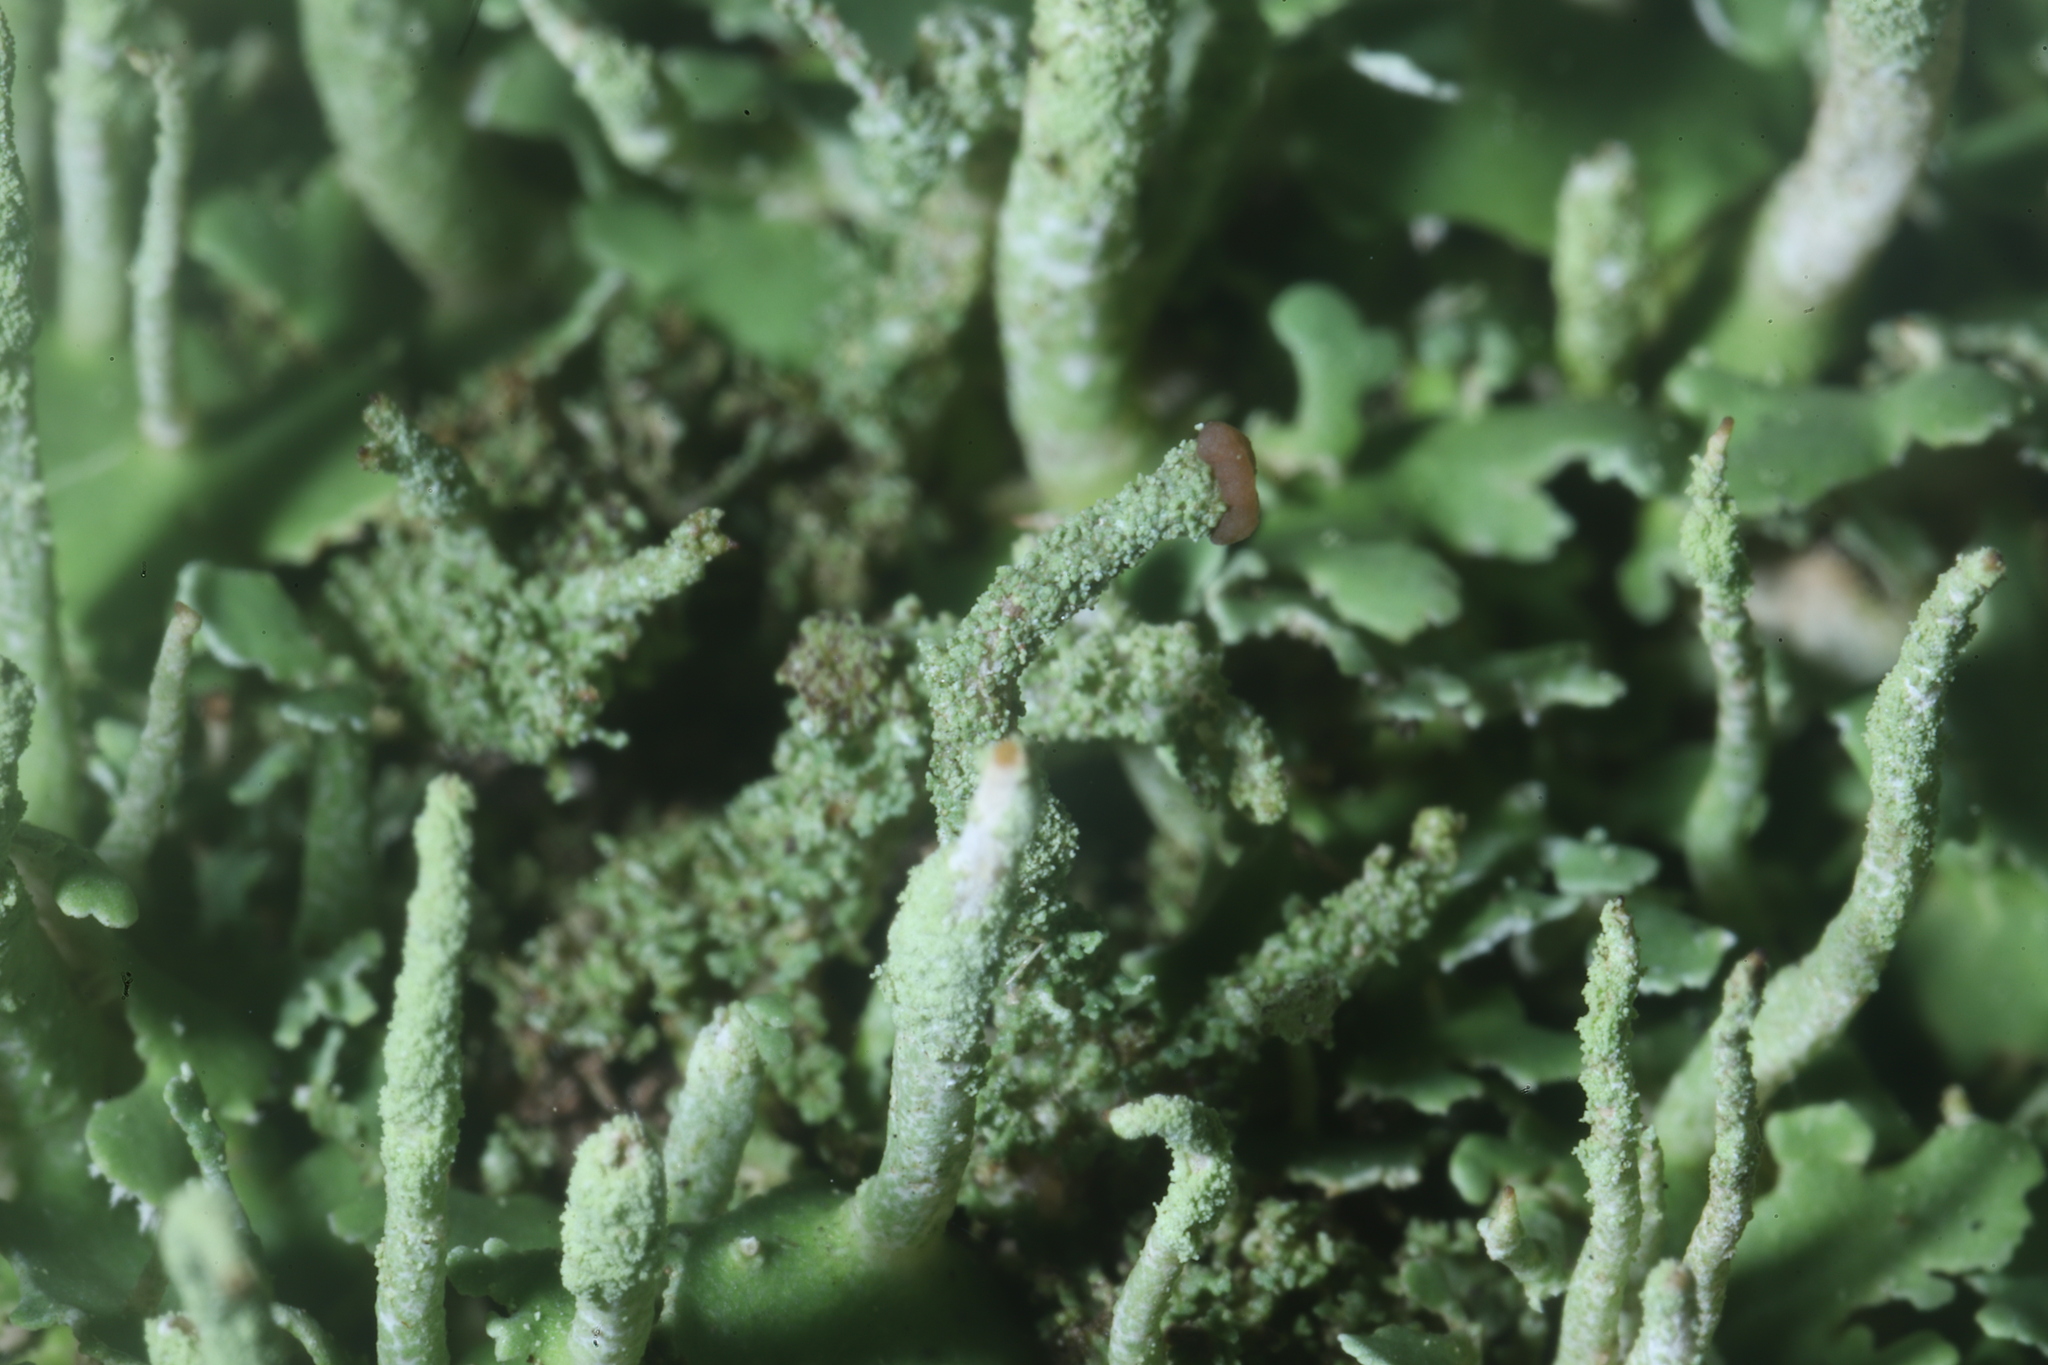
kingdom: Fungi
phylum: Ascomycota
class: Lecanoromycetes
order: Lecanorales
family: Cladoniaceae
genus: Cladonia
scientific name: Cladonia coniocraea
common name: Common powderhorn
